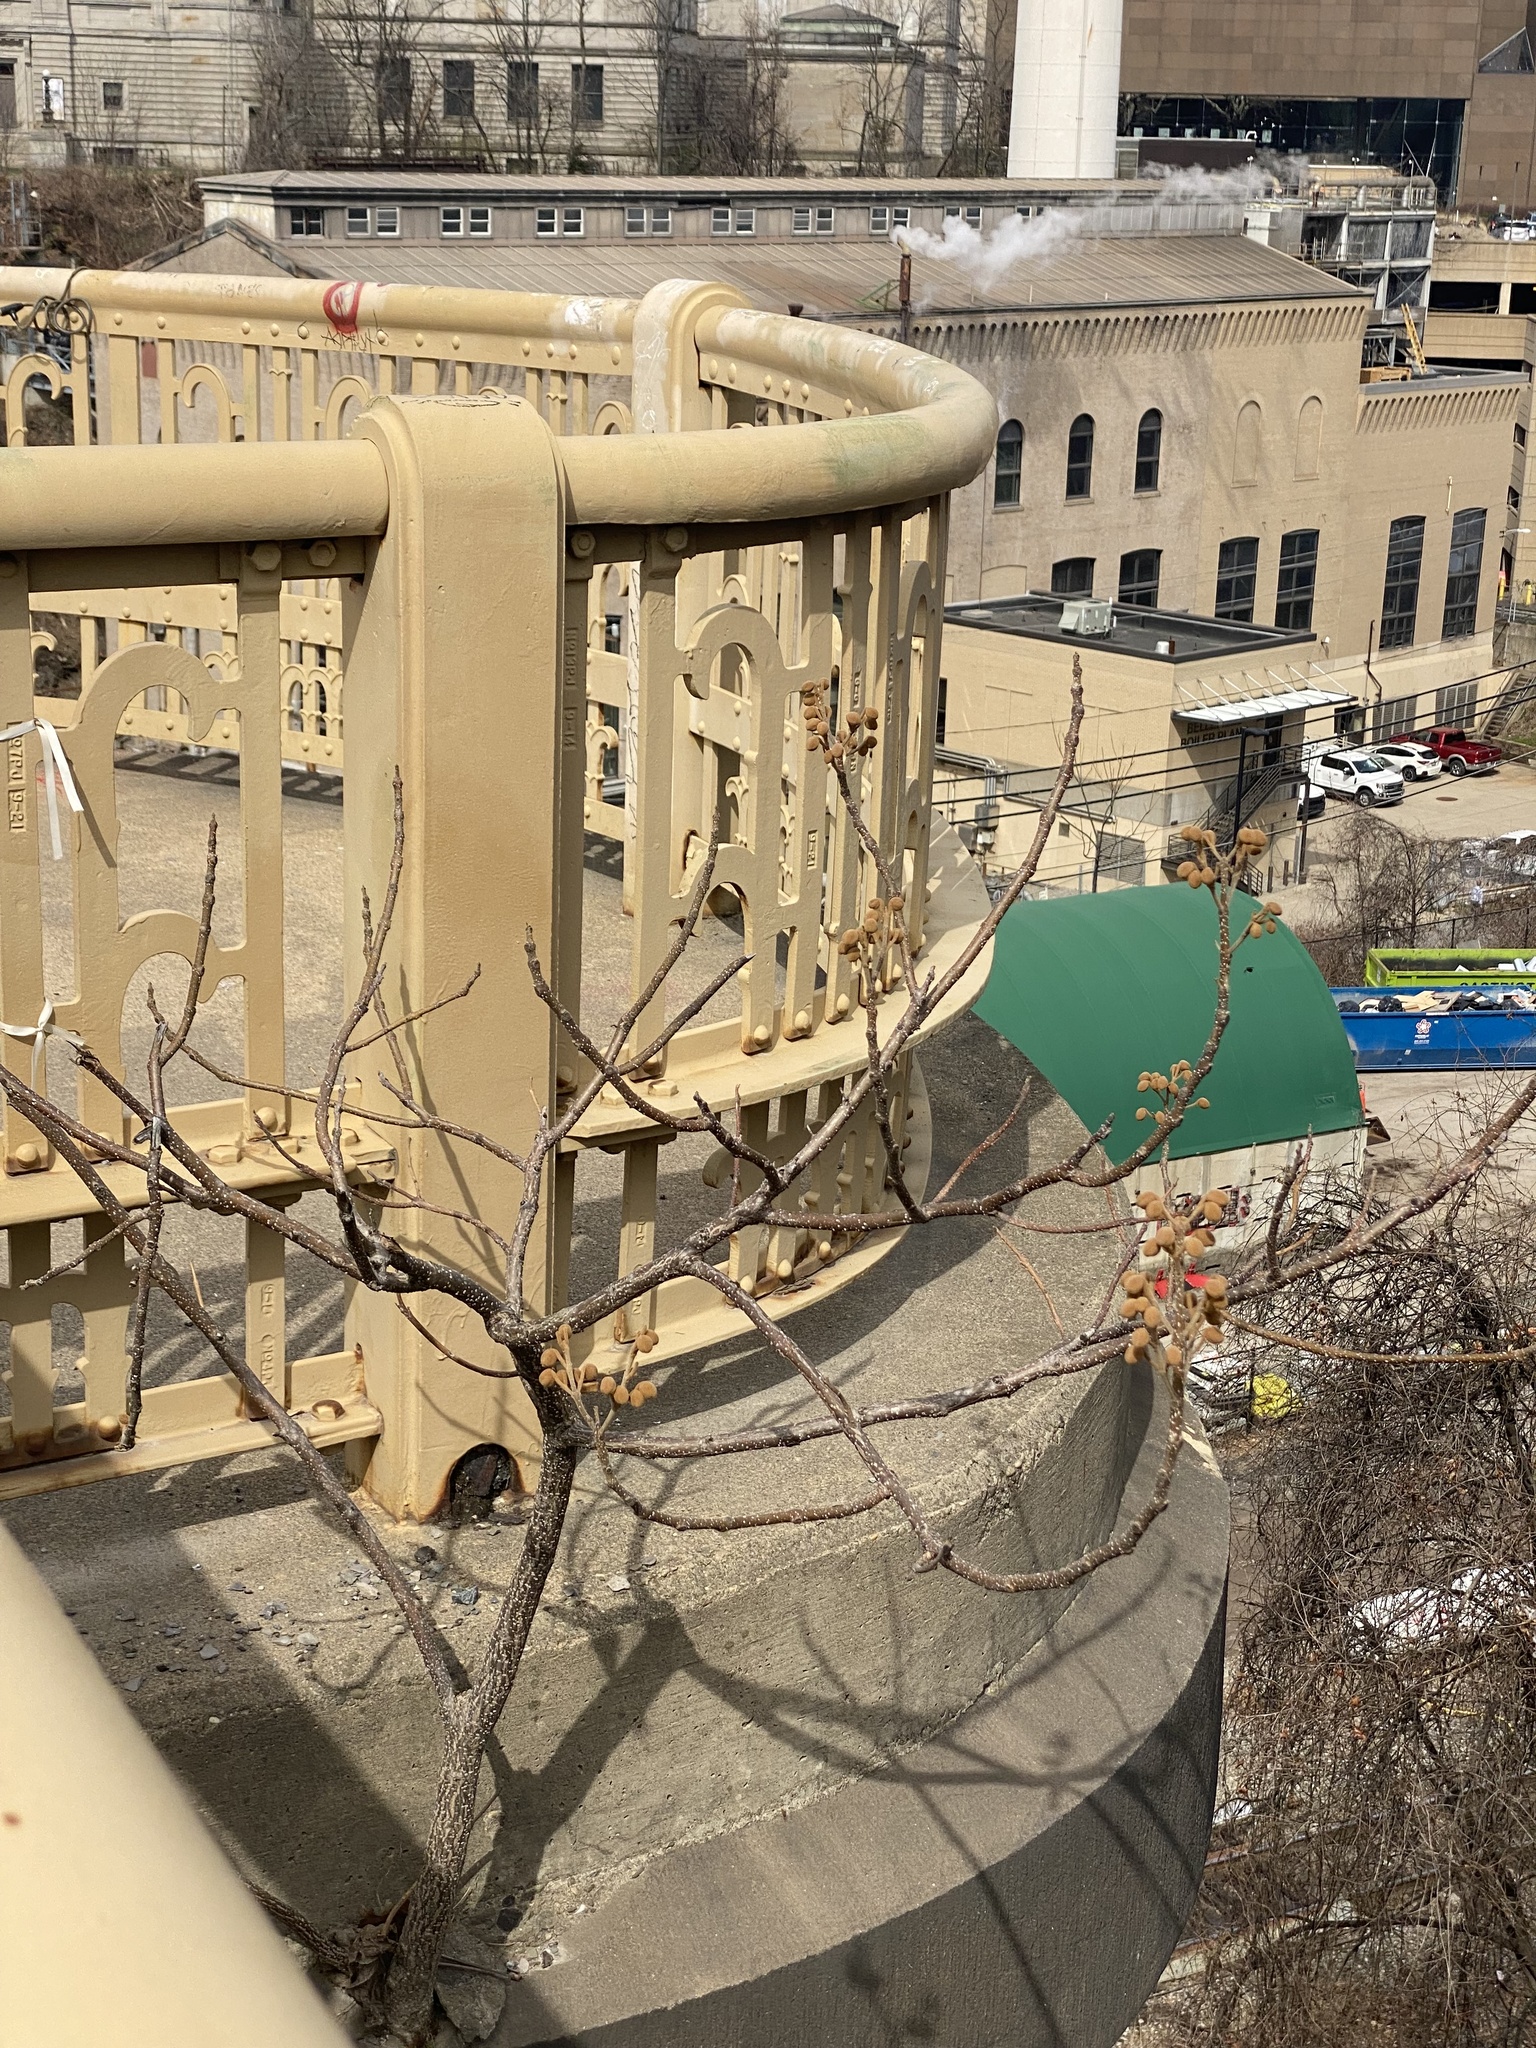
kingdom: Plantae
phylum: Tracheophyta
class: Magnoliopsida
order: Lamiales
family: Paulowniaceae
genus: Paulownia
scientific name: Paulownia tomentosa
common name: Foxglove-tree
